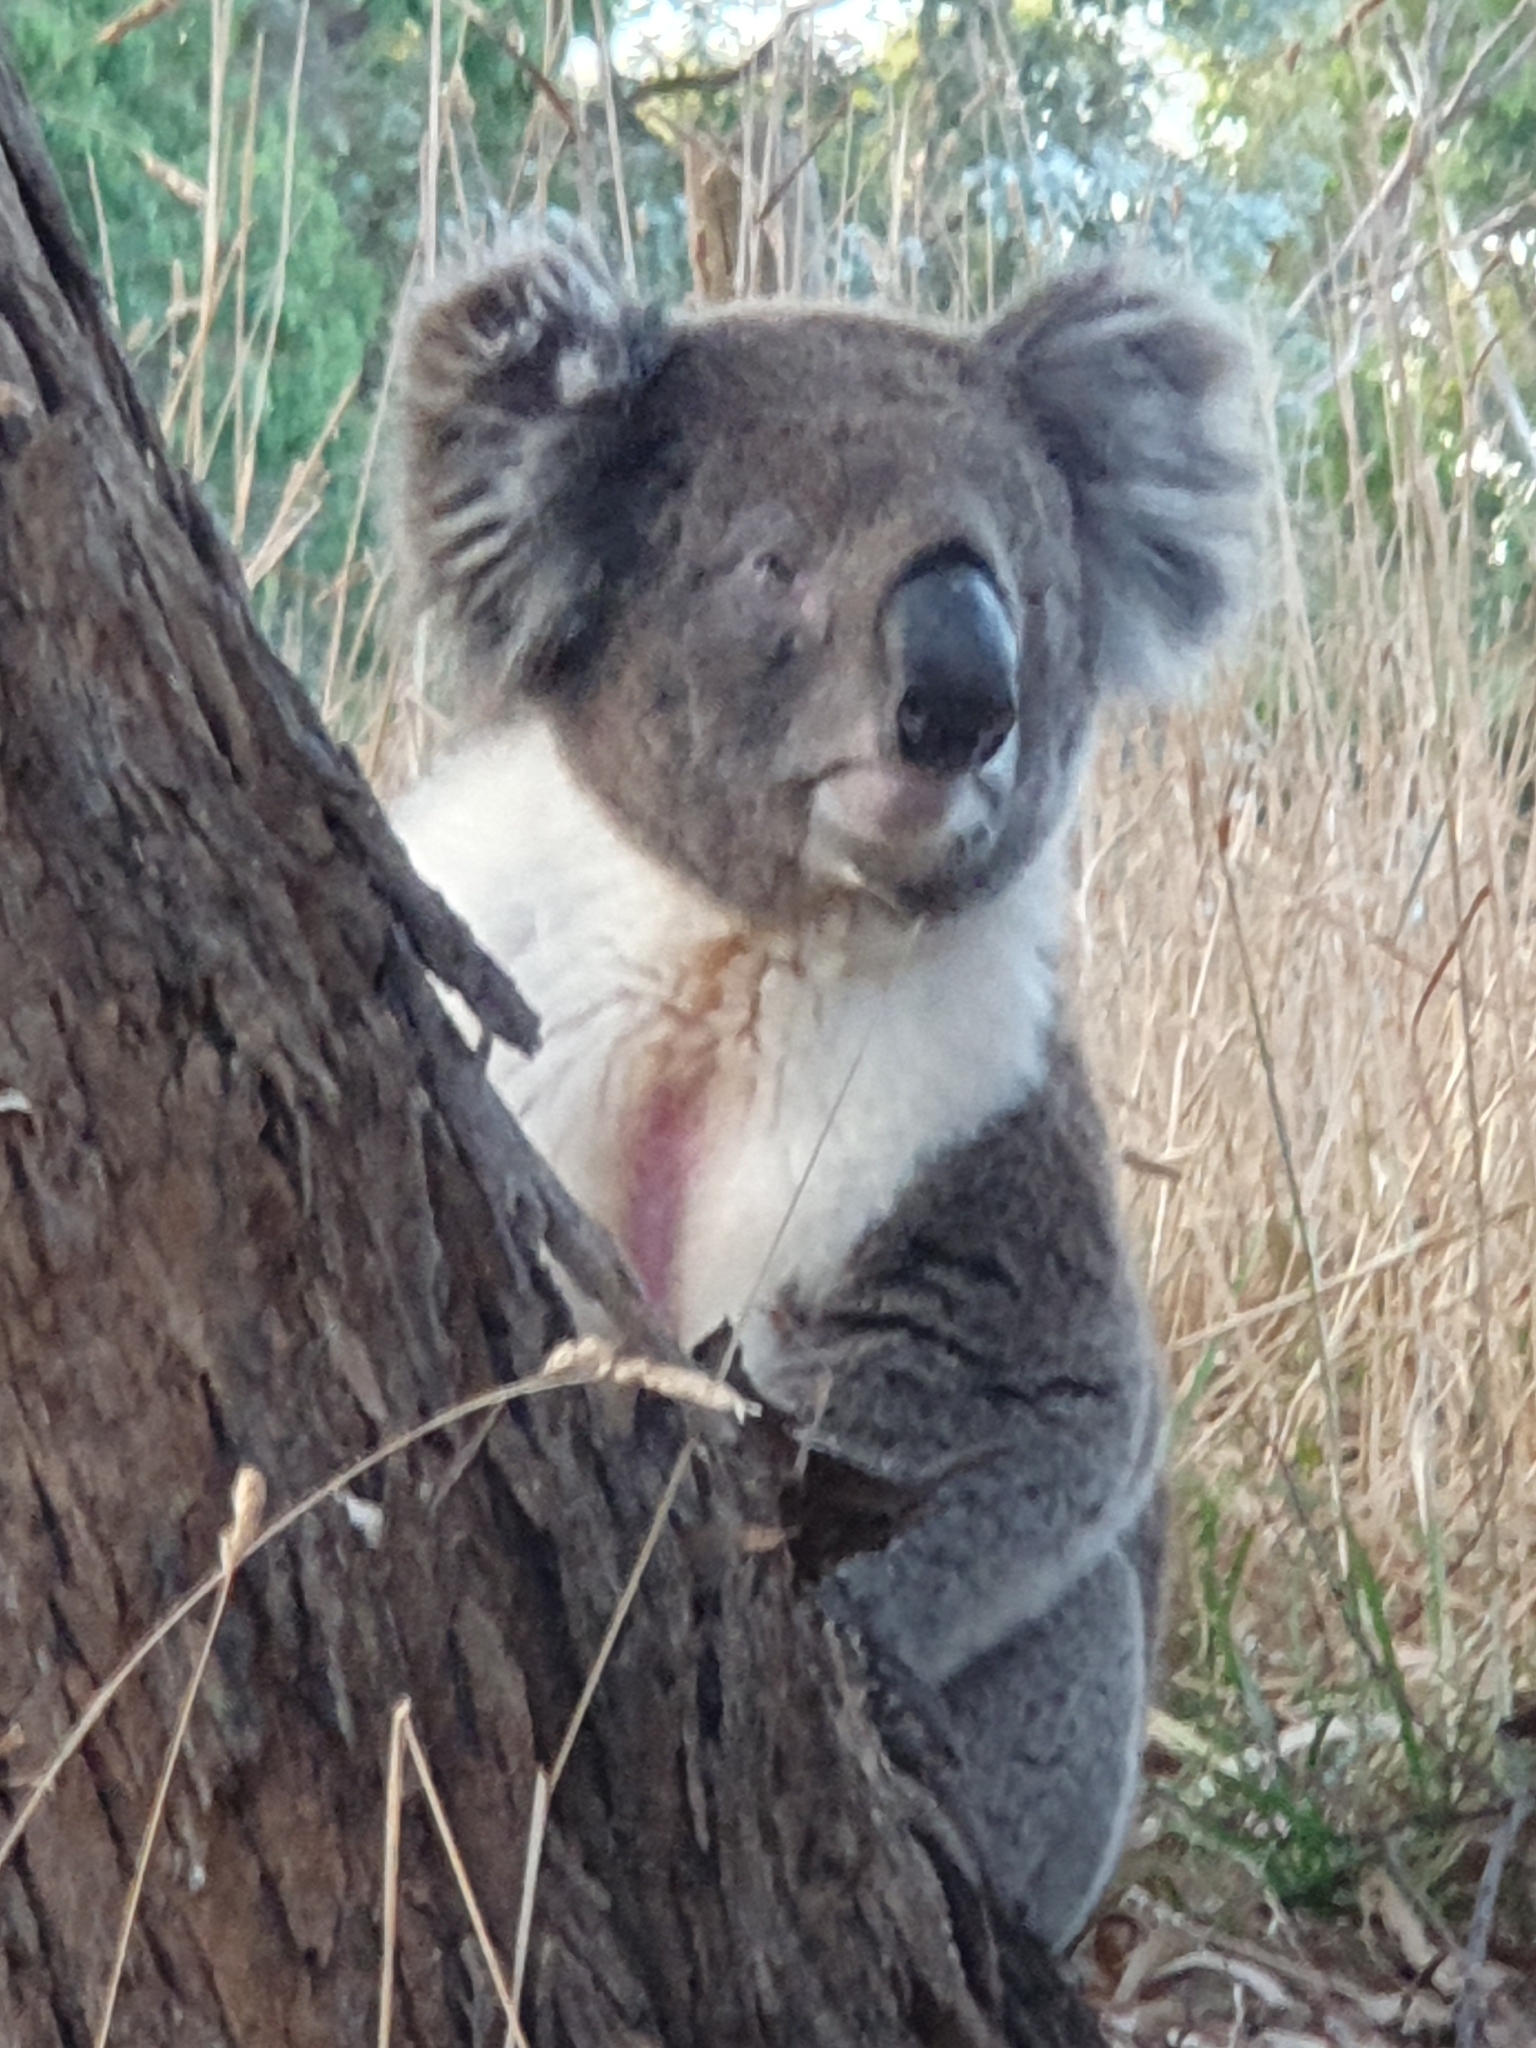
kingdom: Animalia
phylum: Chordata
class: Mammalia
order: Diprotodontia
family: Phascolarctidae
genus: Phascolarctos
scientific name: Phascolarctos cinereus
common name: Koala
